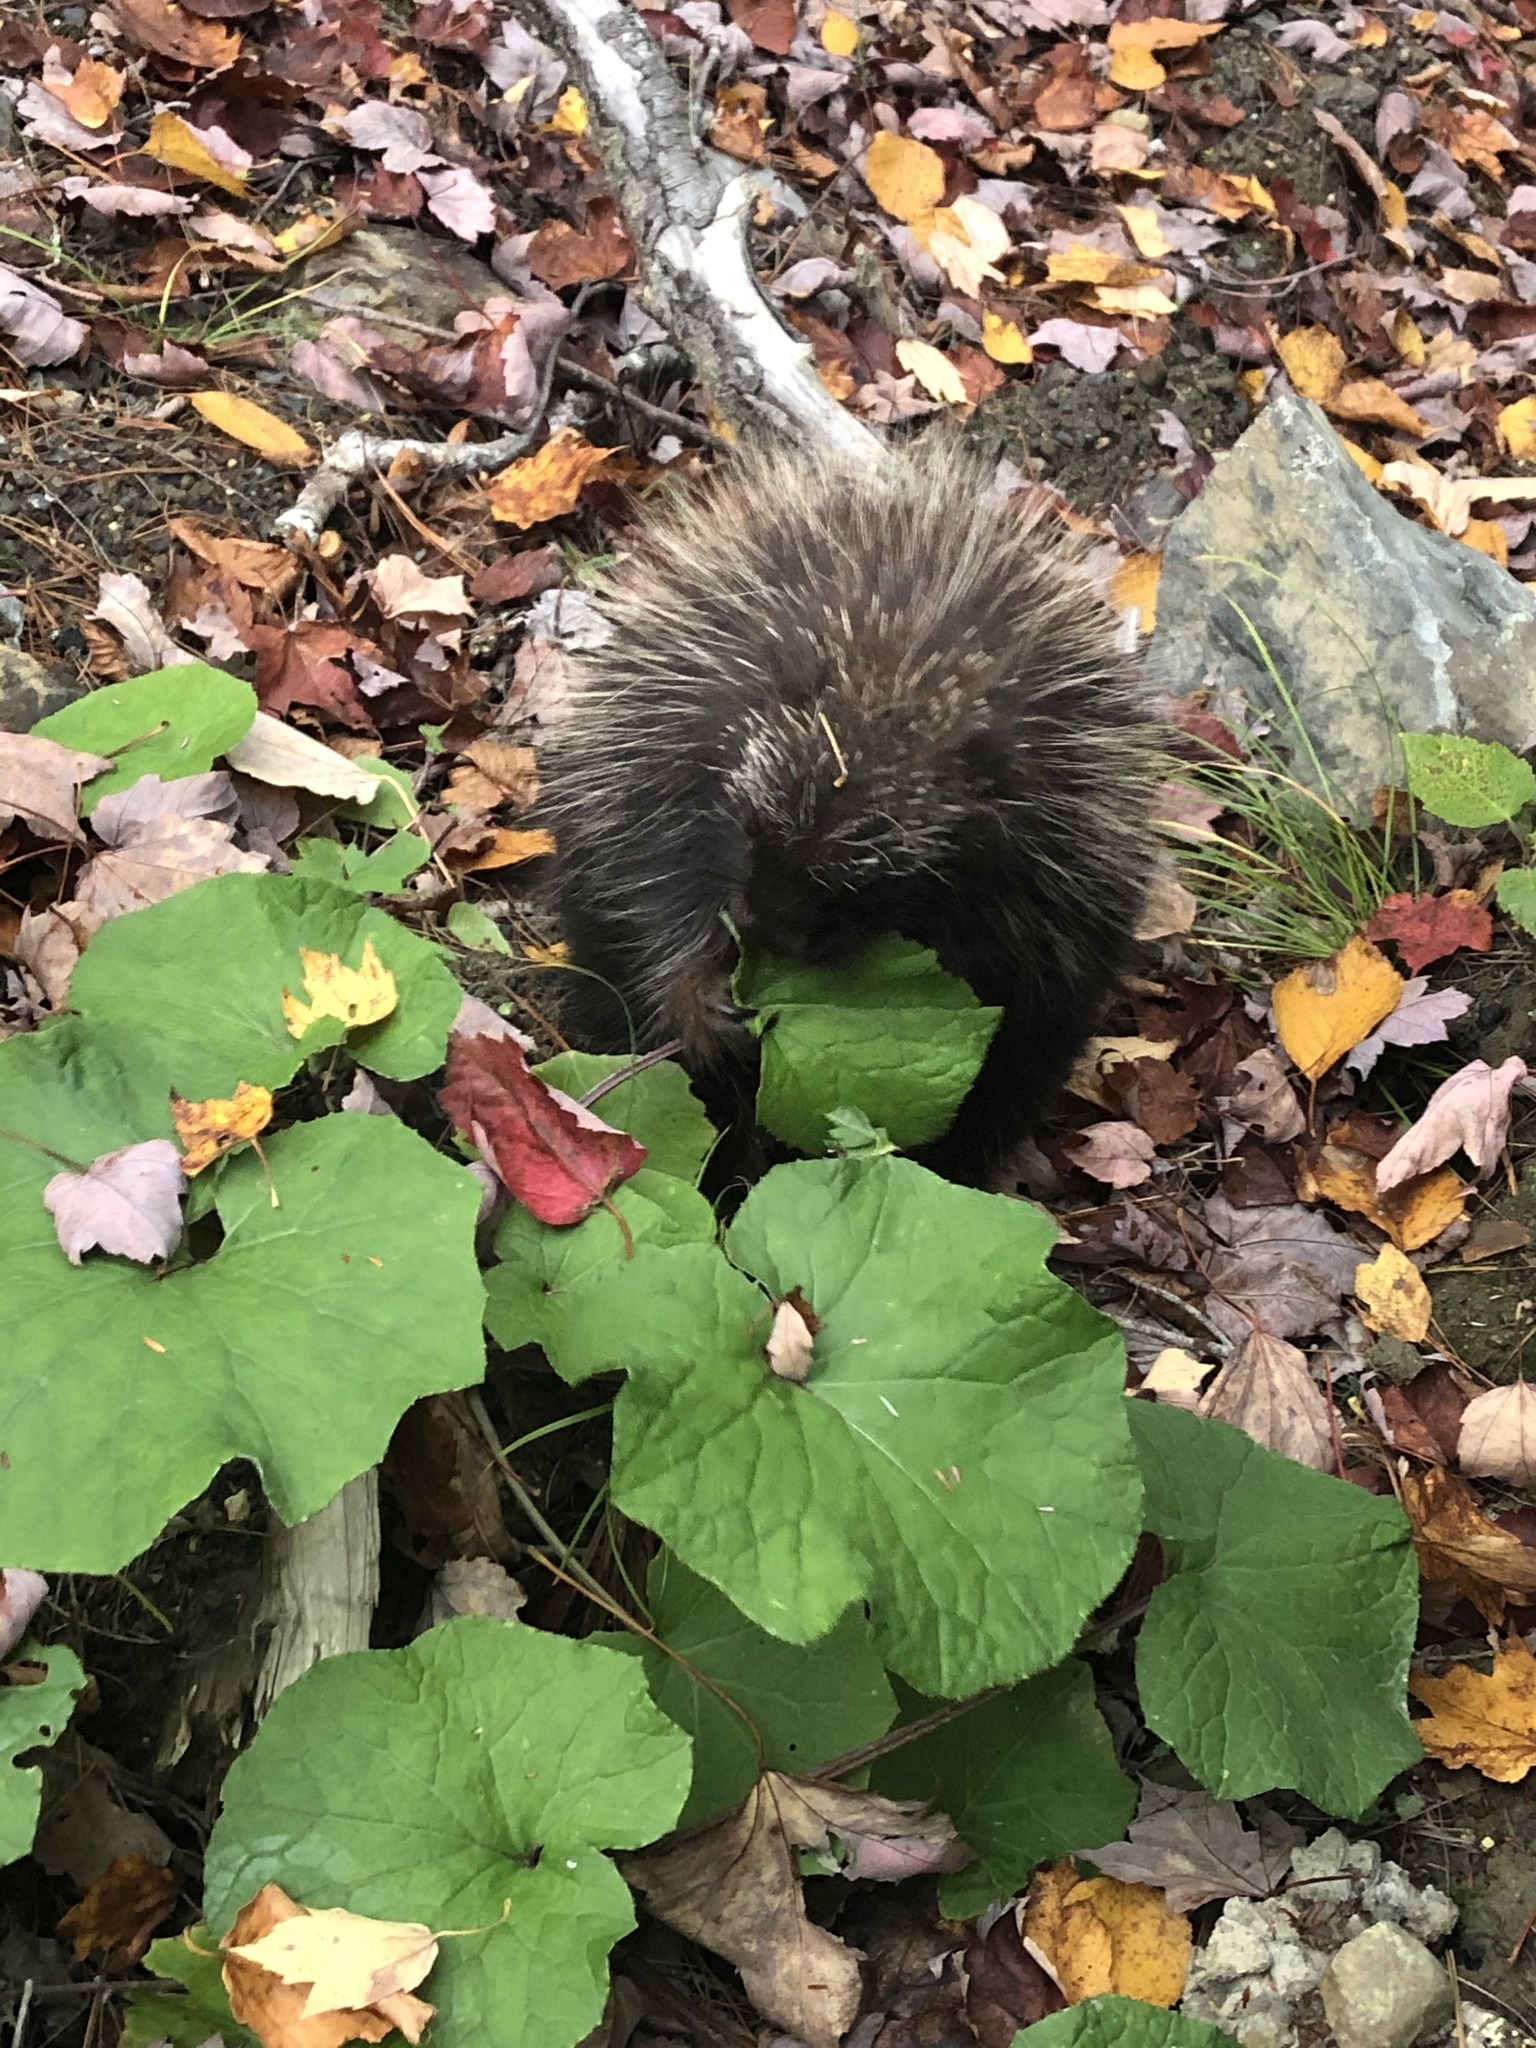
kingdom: Animalia
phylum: Chordata
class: Mammalia
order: Rodentia
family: Erethizontidae
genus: Erethizon
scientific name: Erethizon dorsatus
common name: North american porcupine
